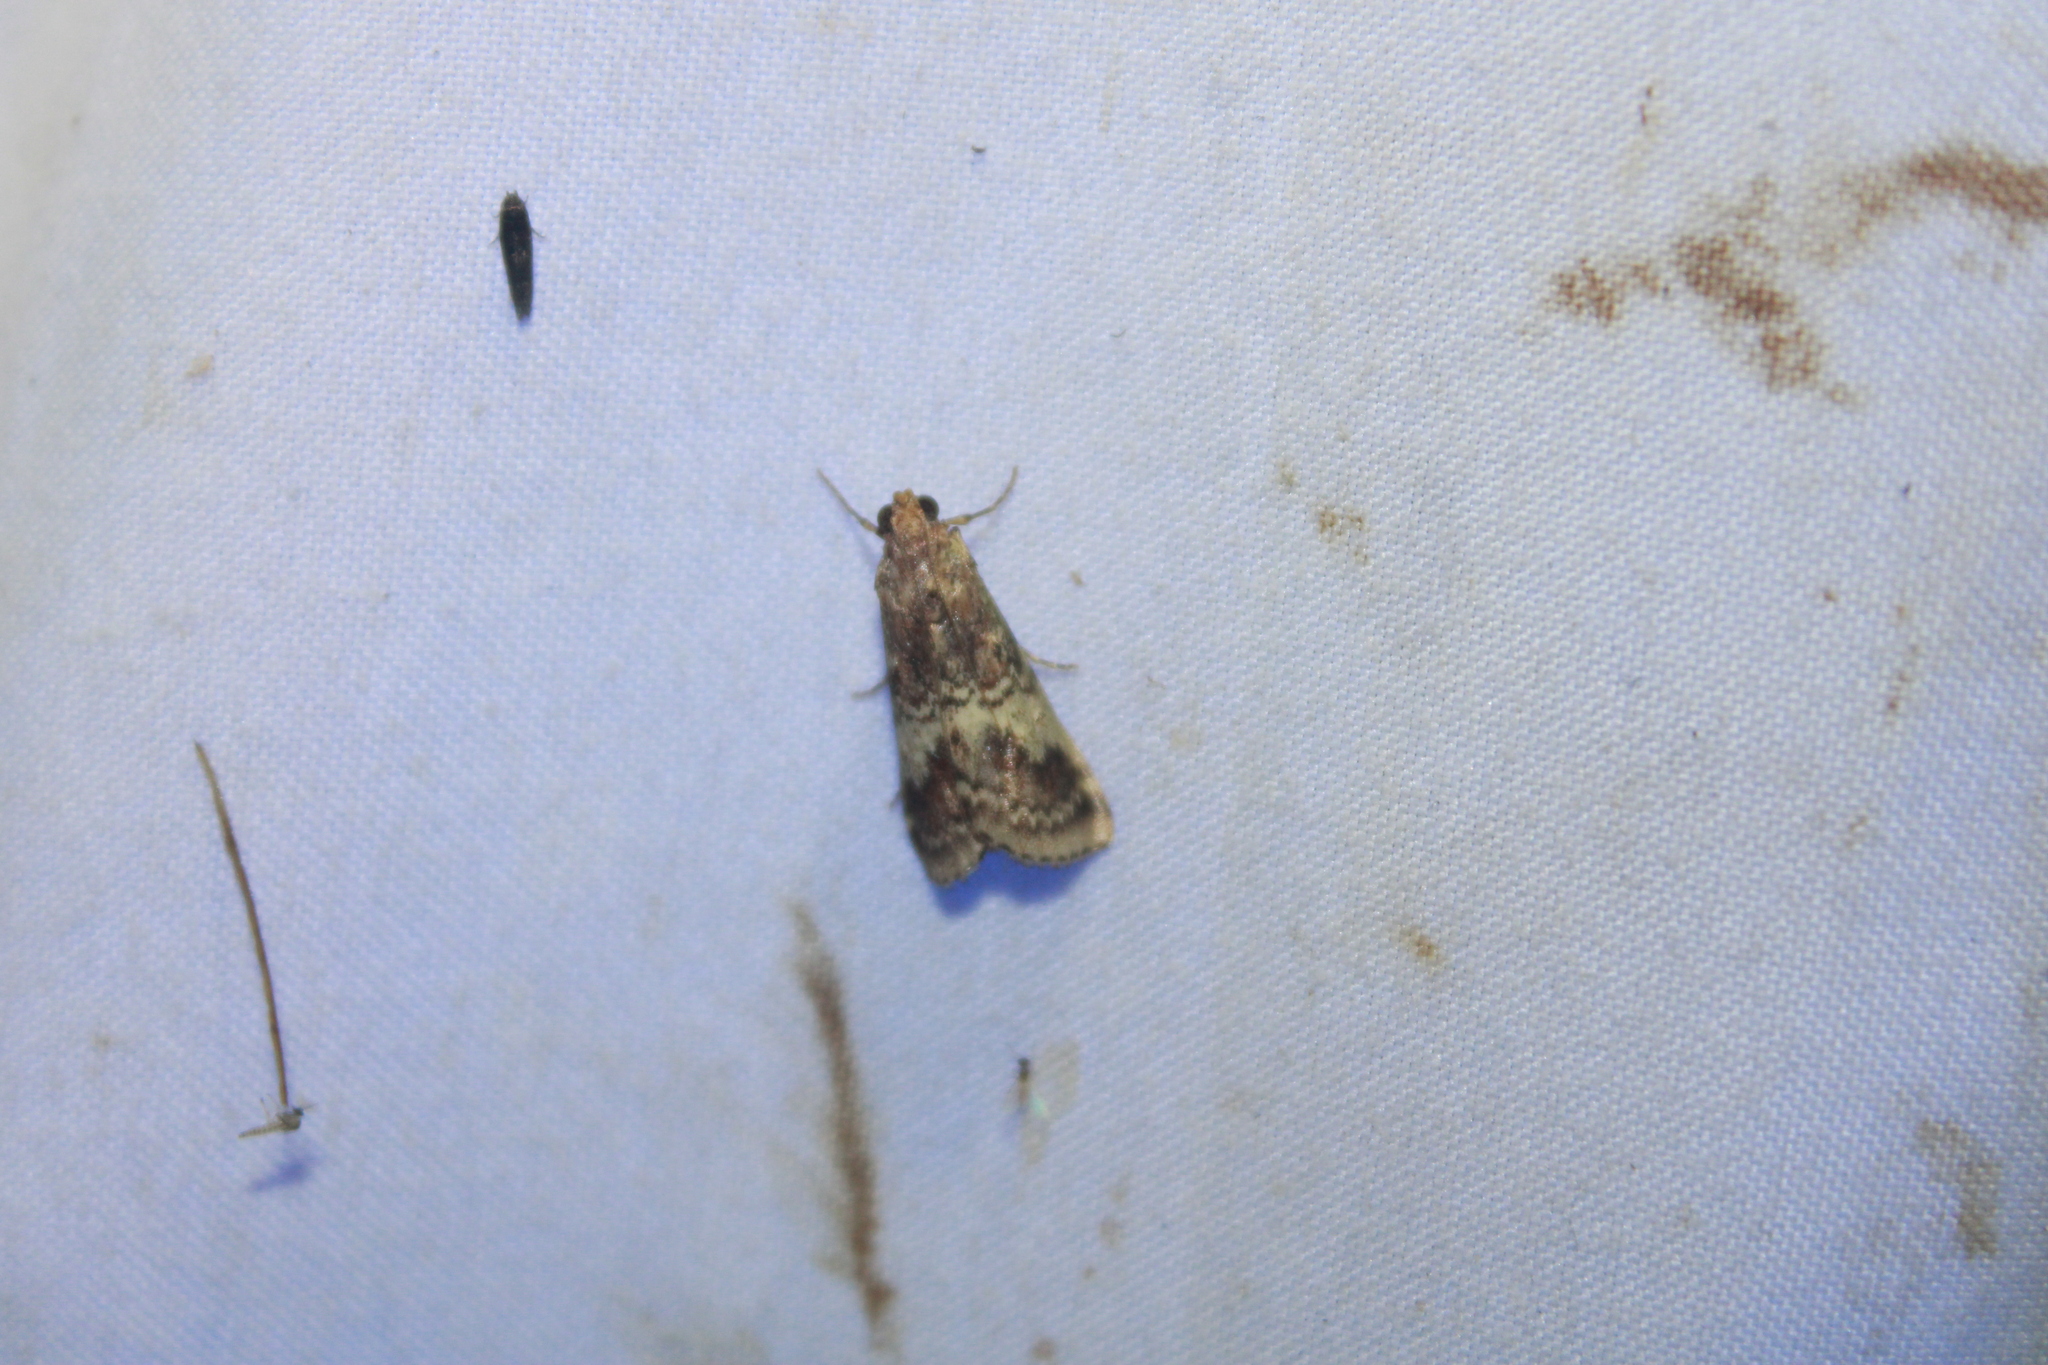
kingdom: Animalia
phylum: Arthropoda
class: Insecta
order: Lepidoptera
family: Pyralidae
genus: Deuterollyta
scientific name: Deuterollyta majuscula
